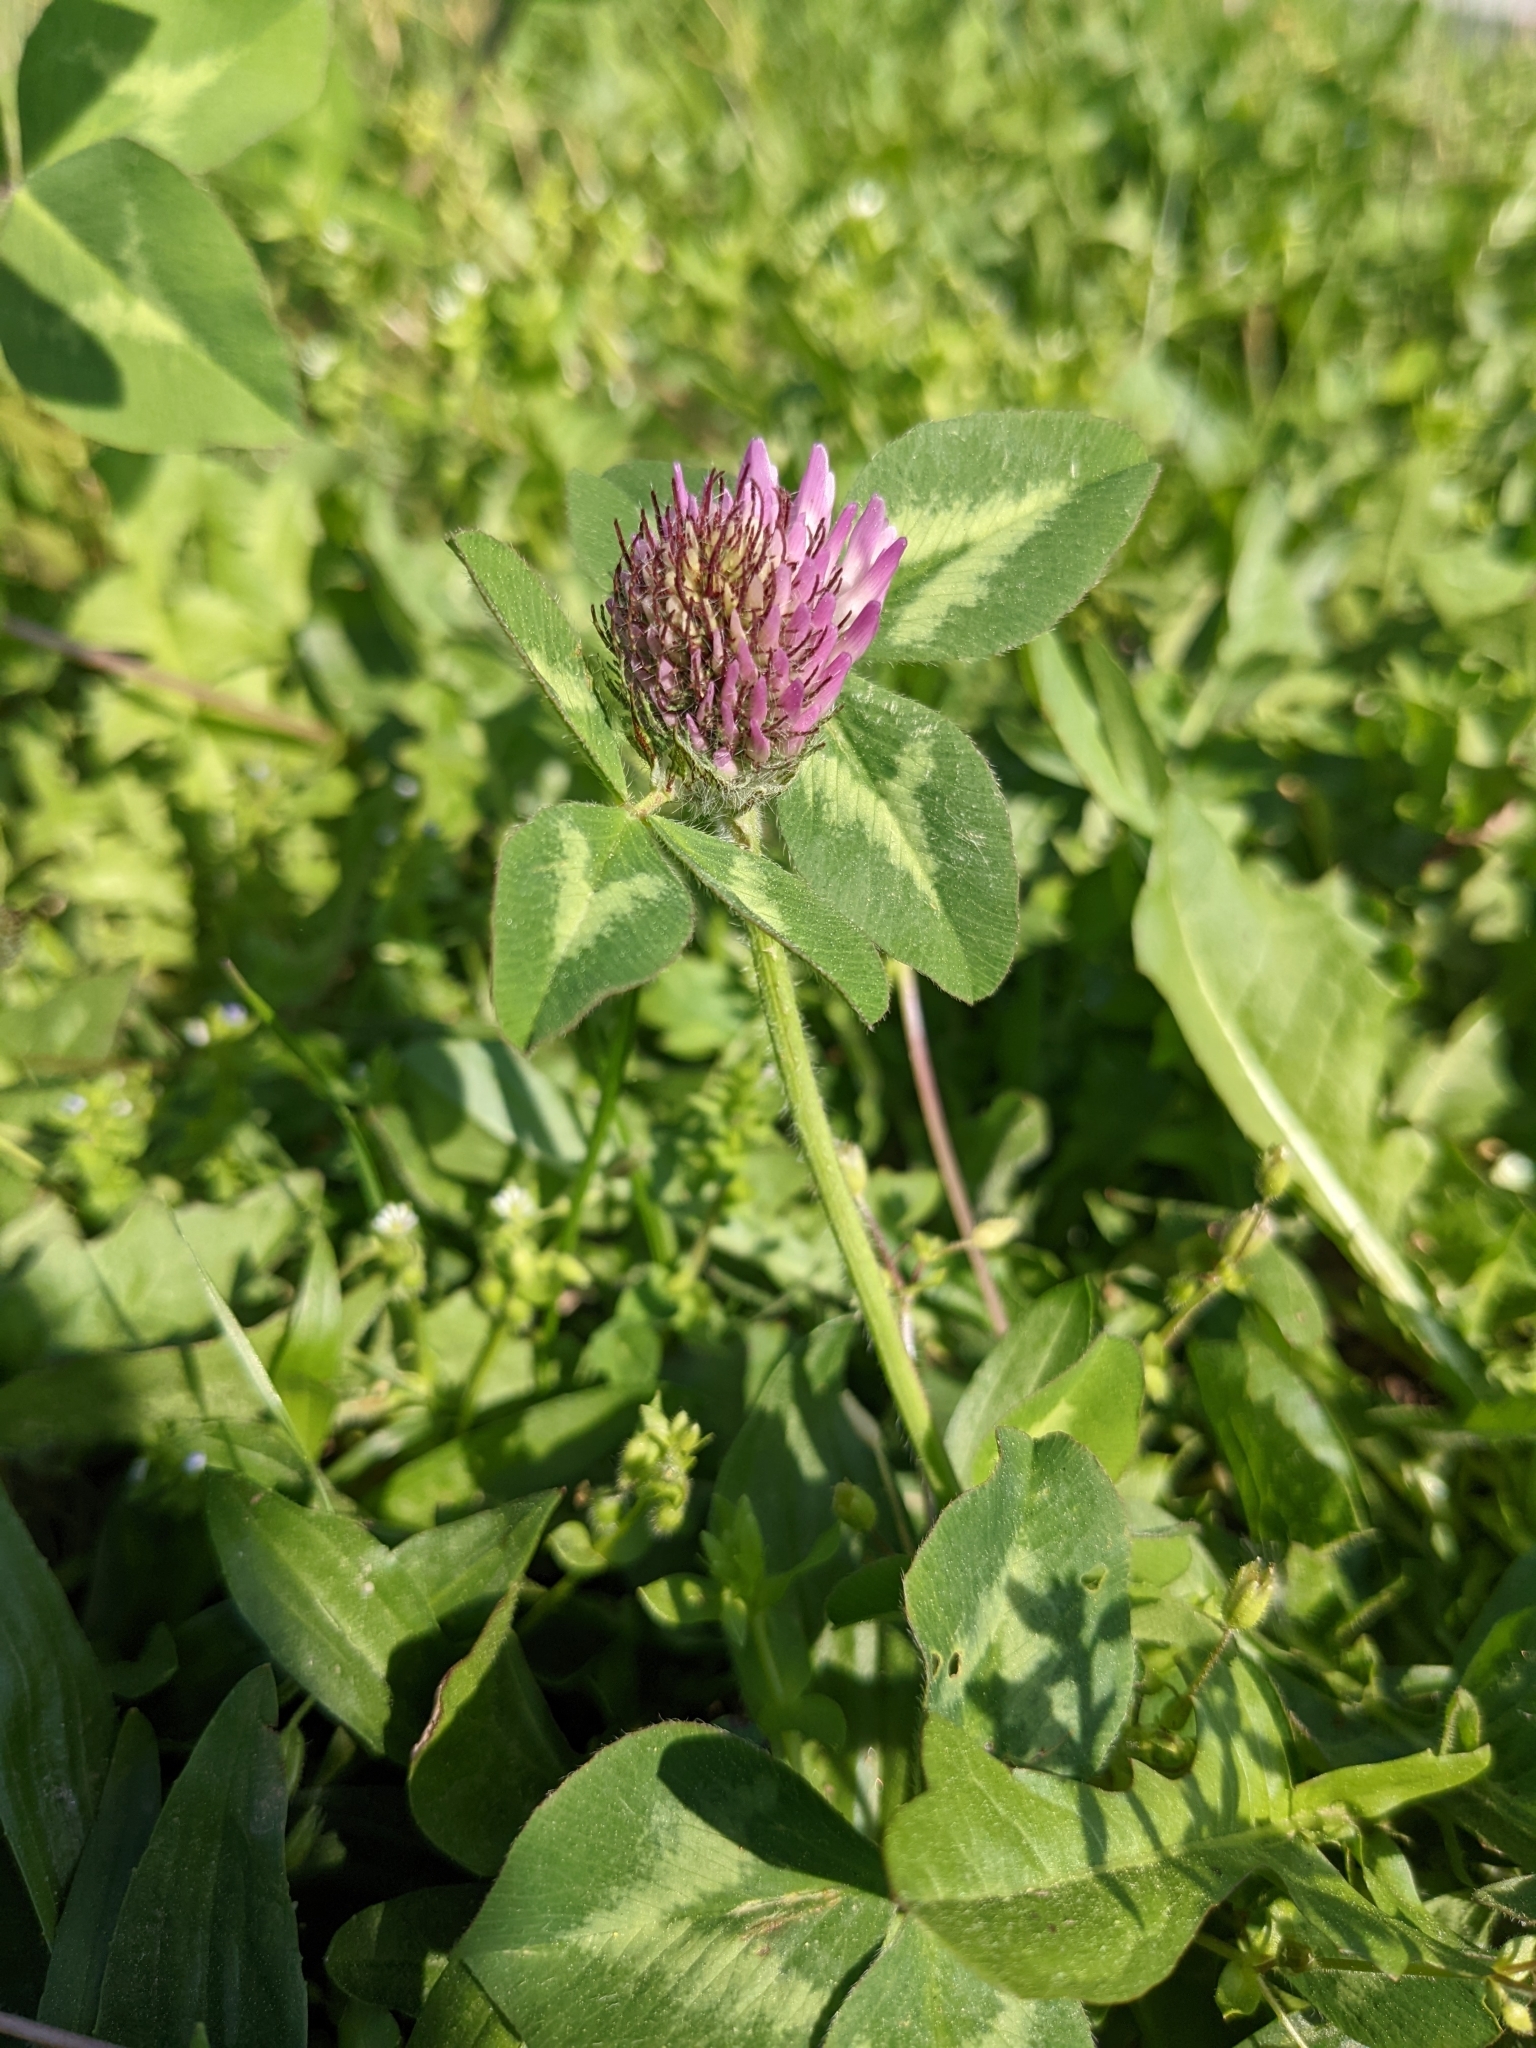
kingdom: Plantae
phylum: Tracheophyta
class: Magnoliopsida
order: Fabales
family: Fabaceae
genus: Trifolium
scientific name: Trifolium pratense
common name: Red clover
